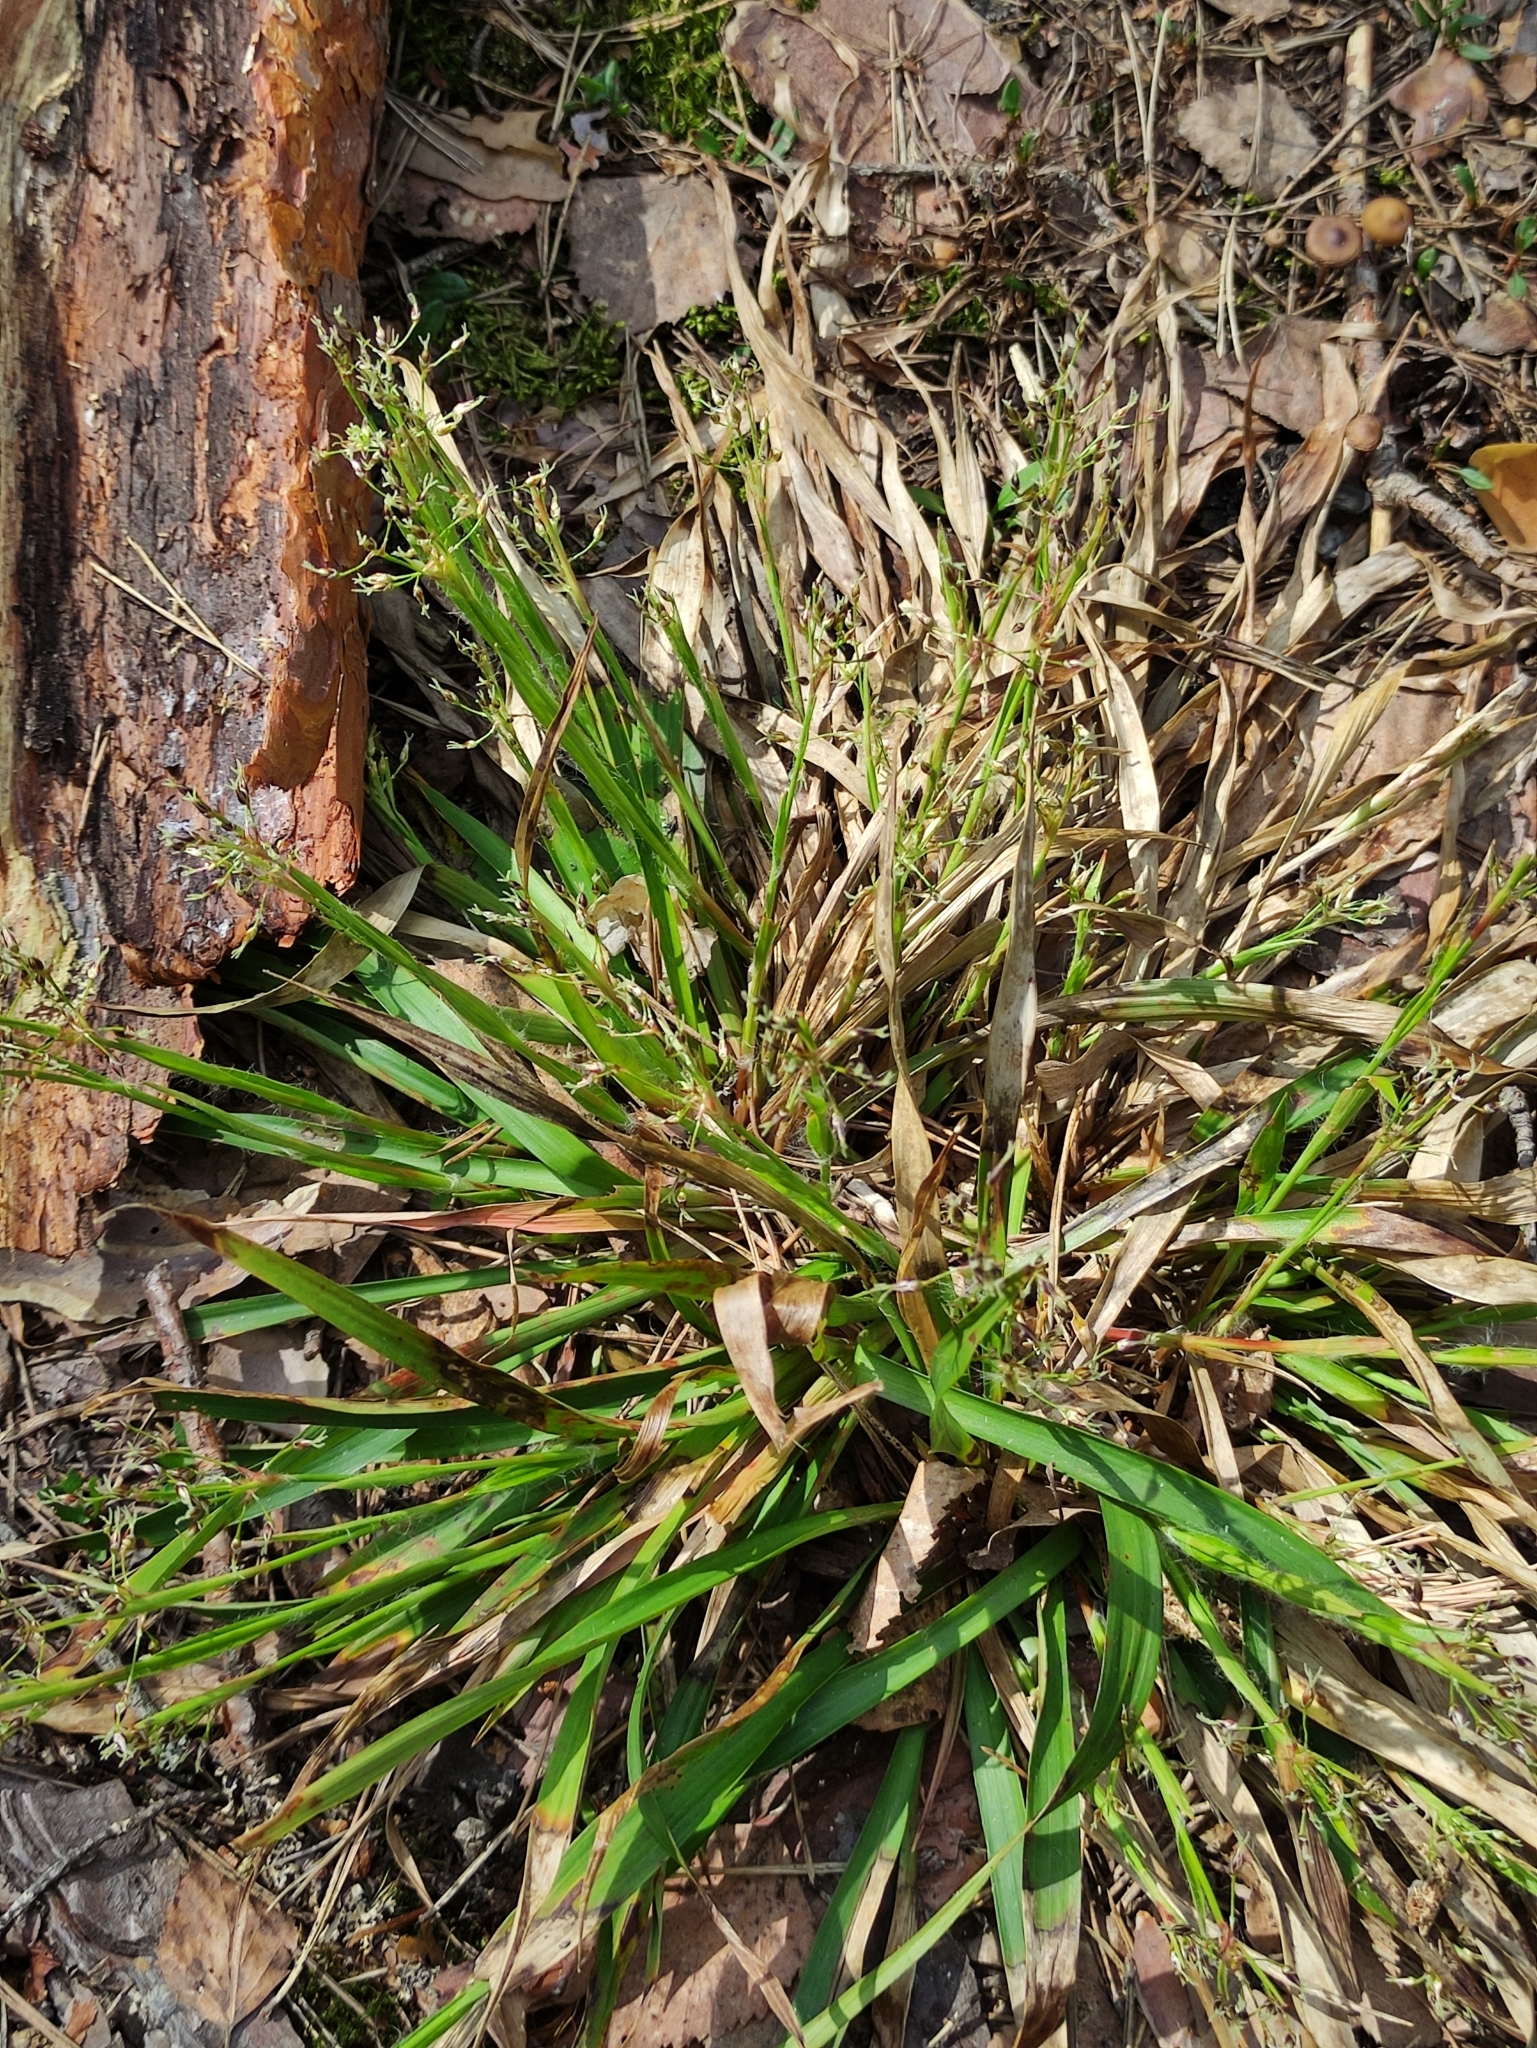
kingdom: Plantae
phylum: Tracheophyta
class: Liliopsida
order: Poales
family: Juncaceae
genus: Luzula
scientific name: Luzula pilosa
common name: Hairy wood-rush
